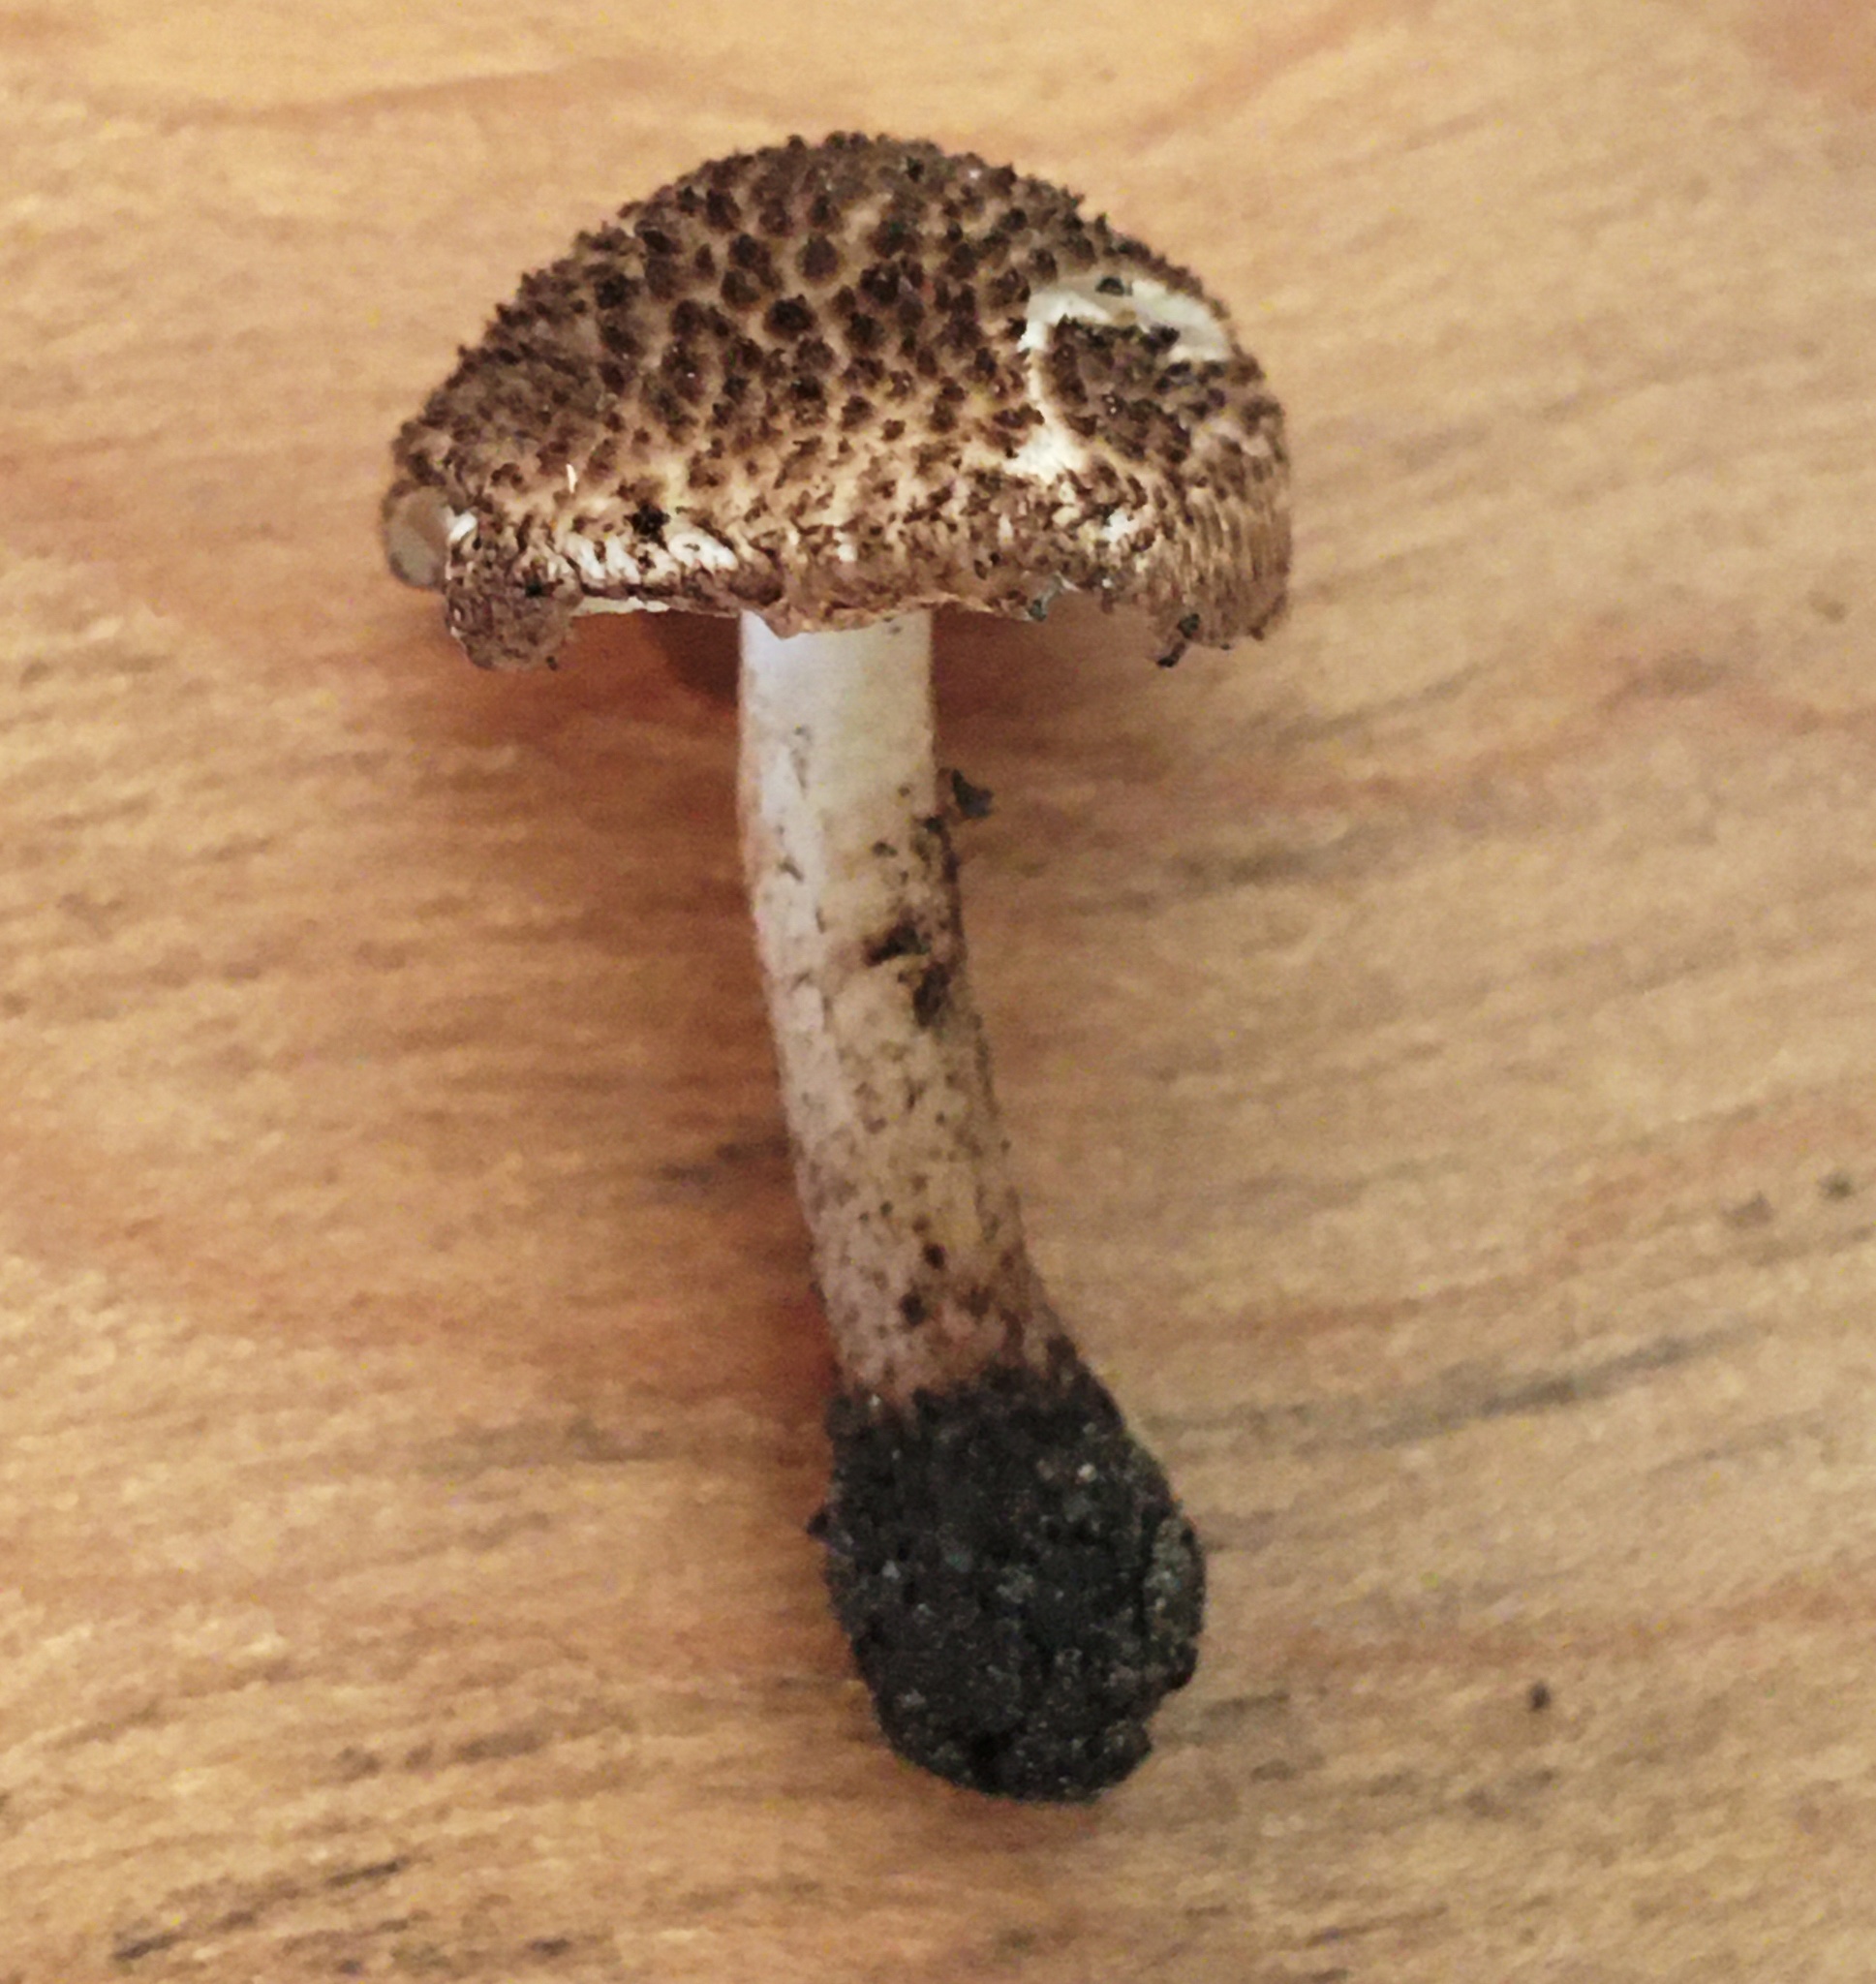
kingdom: Fungi
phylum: Basidiomycota
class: Agaricomycetes
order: Agaricales
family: Agaricaceae
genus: Cystolepiota
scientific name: Cystolepiota eriophora
